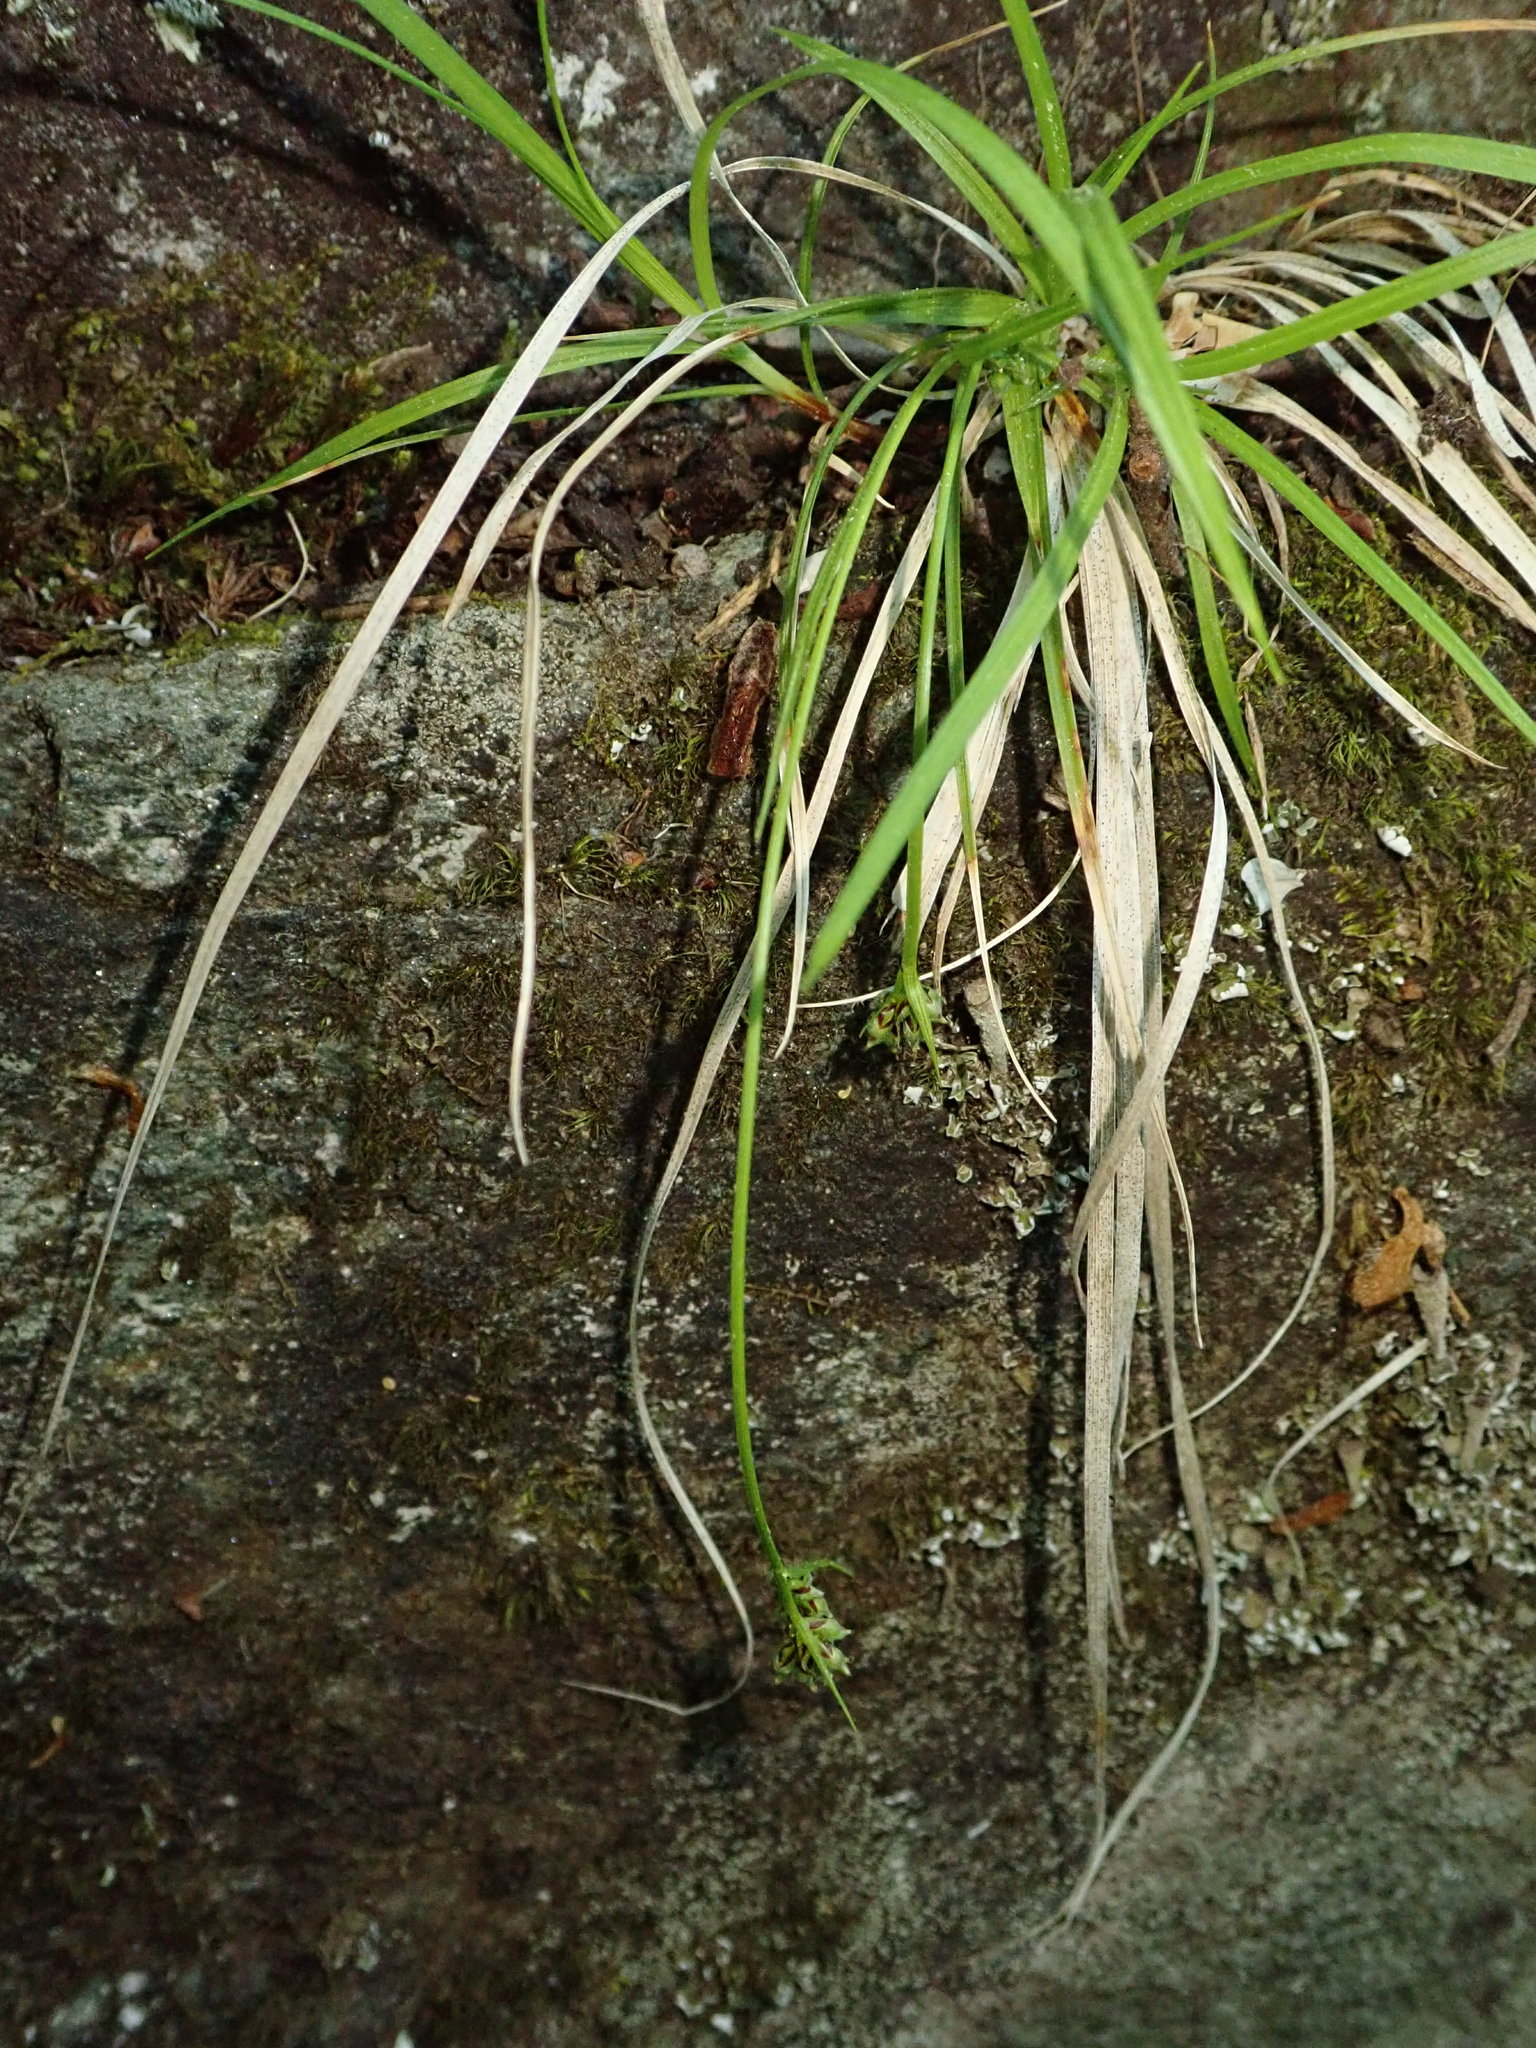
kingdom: Plantae
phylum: Tracheophyta
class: Liliopsida
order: Poales
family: Cyperaceae
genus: Carex
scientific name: Carex deflexa
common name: Bent northern sedge
